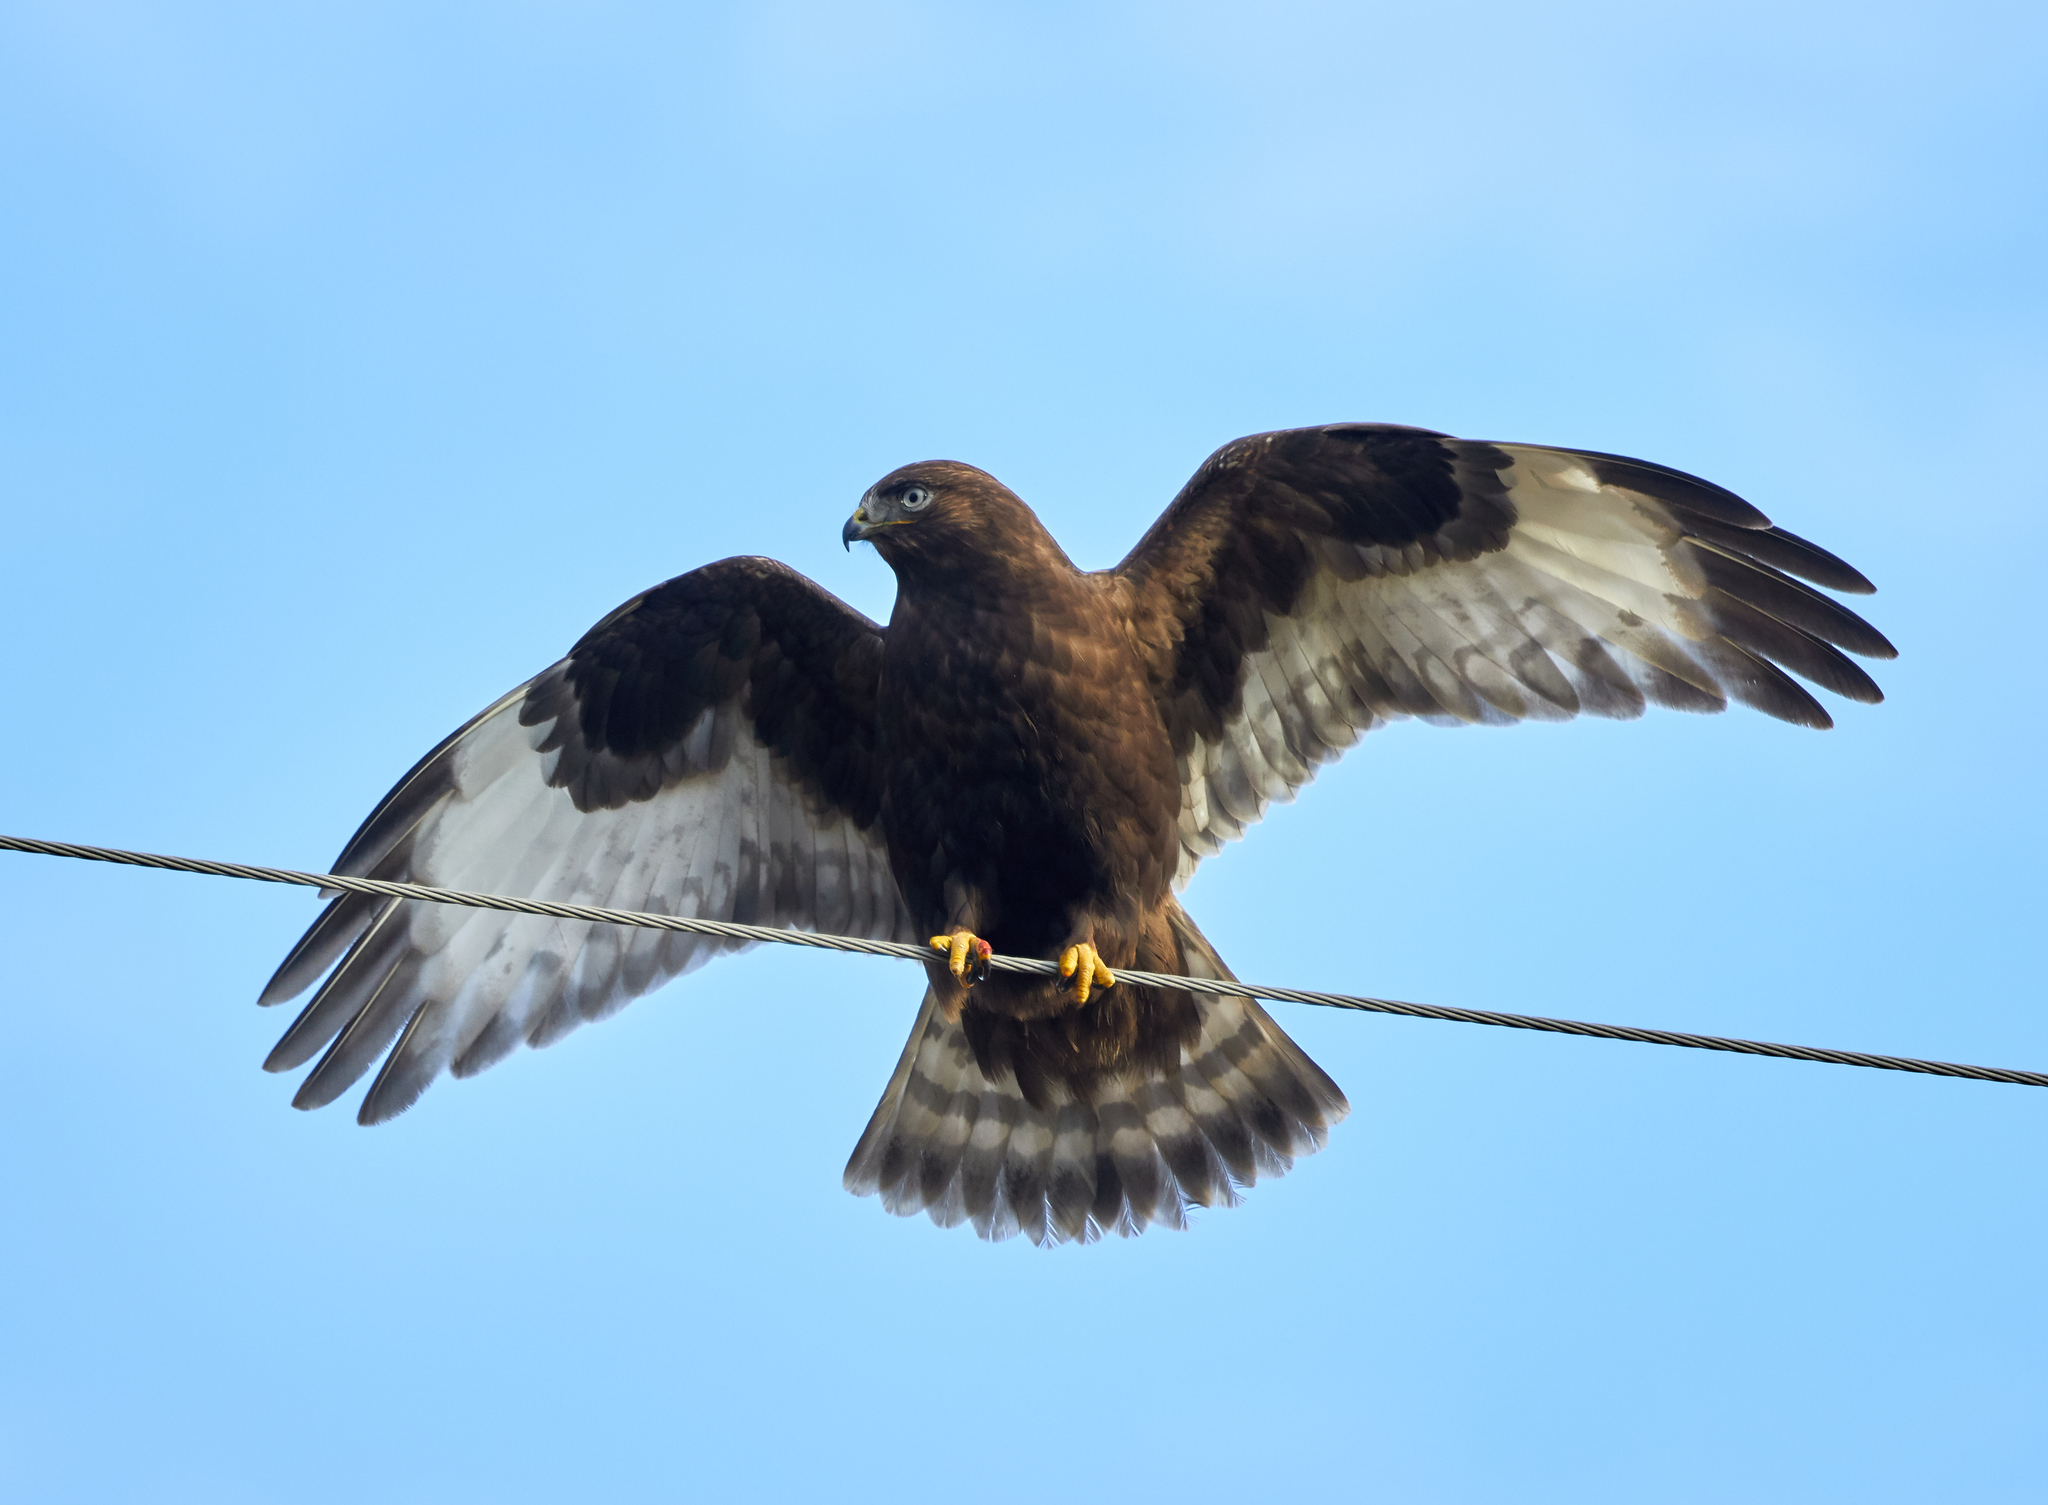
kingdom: Animalia
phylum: Chordata
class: Aves
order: Accipitriformes
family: Accipitridae
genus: Buteo
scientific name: Buteo lagopus
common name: Rough-legged buzzard
